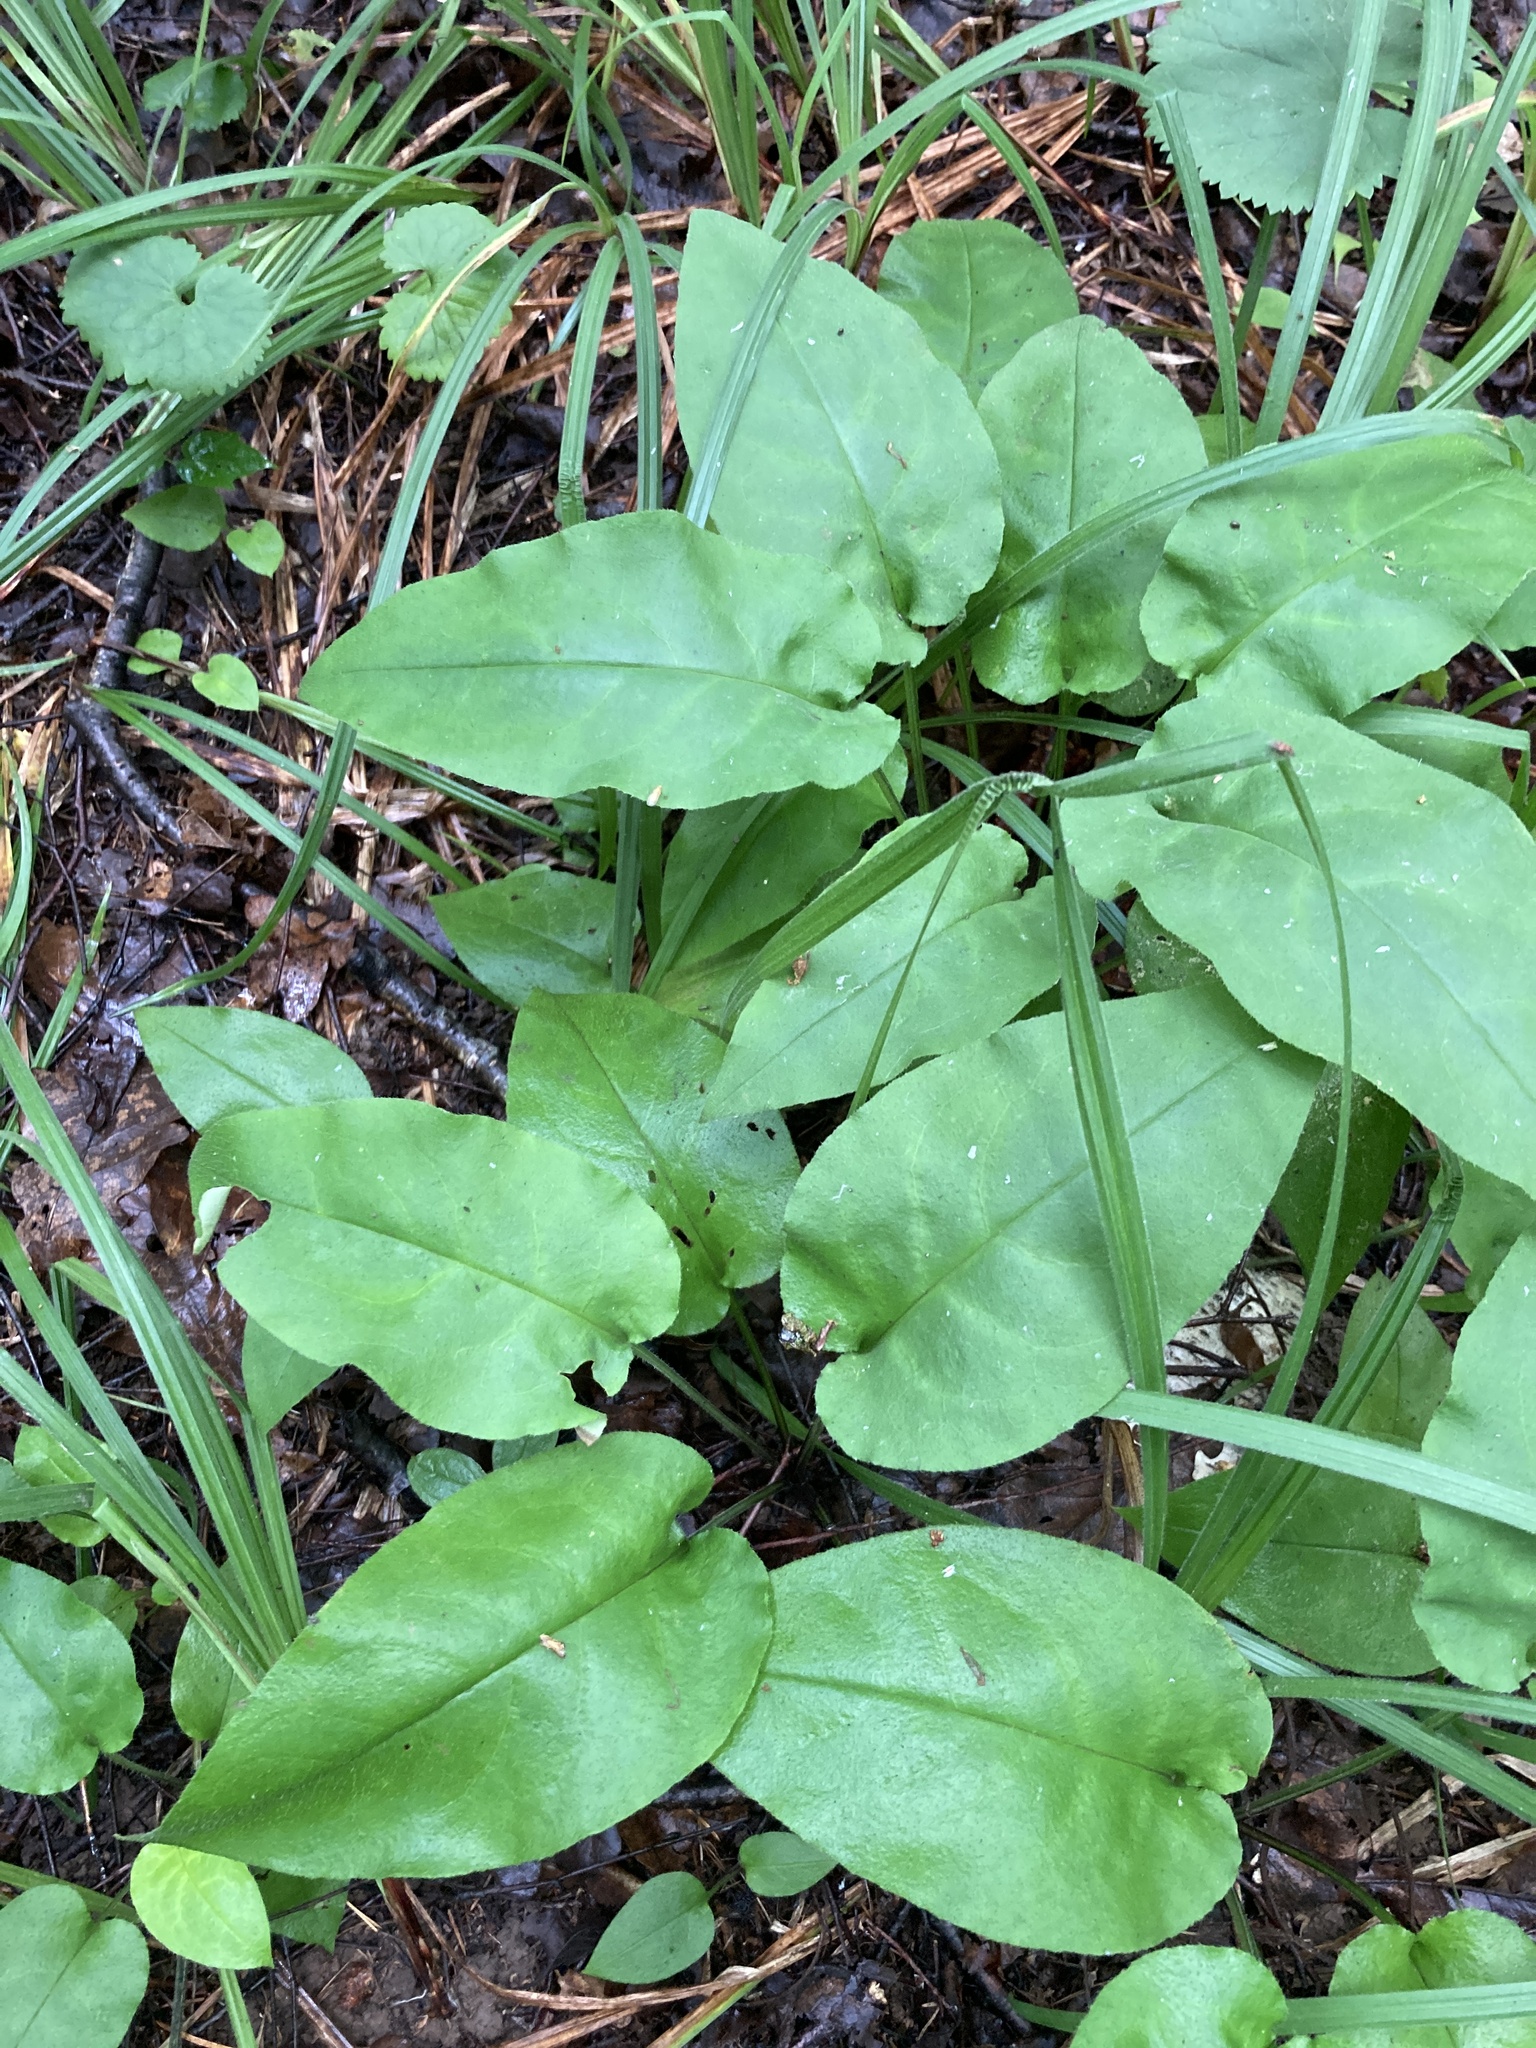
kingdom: Plantae
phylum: Tracheophyta
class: Magnoliopsida
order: Boraginales
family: Boraginaceae
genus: Pulmonaria
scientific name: Pulmonaria obscura
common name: Suffolk lungwort
